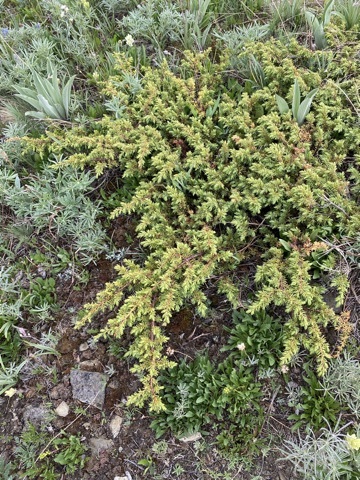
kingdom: Plantae
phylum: Tracheophyta
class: Pinopsida
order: Pinales
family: Cupressaceae
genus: Juniperus
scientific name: Juniperus communis
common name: Common juniper
